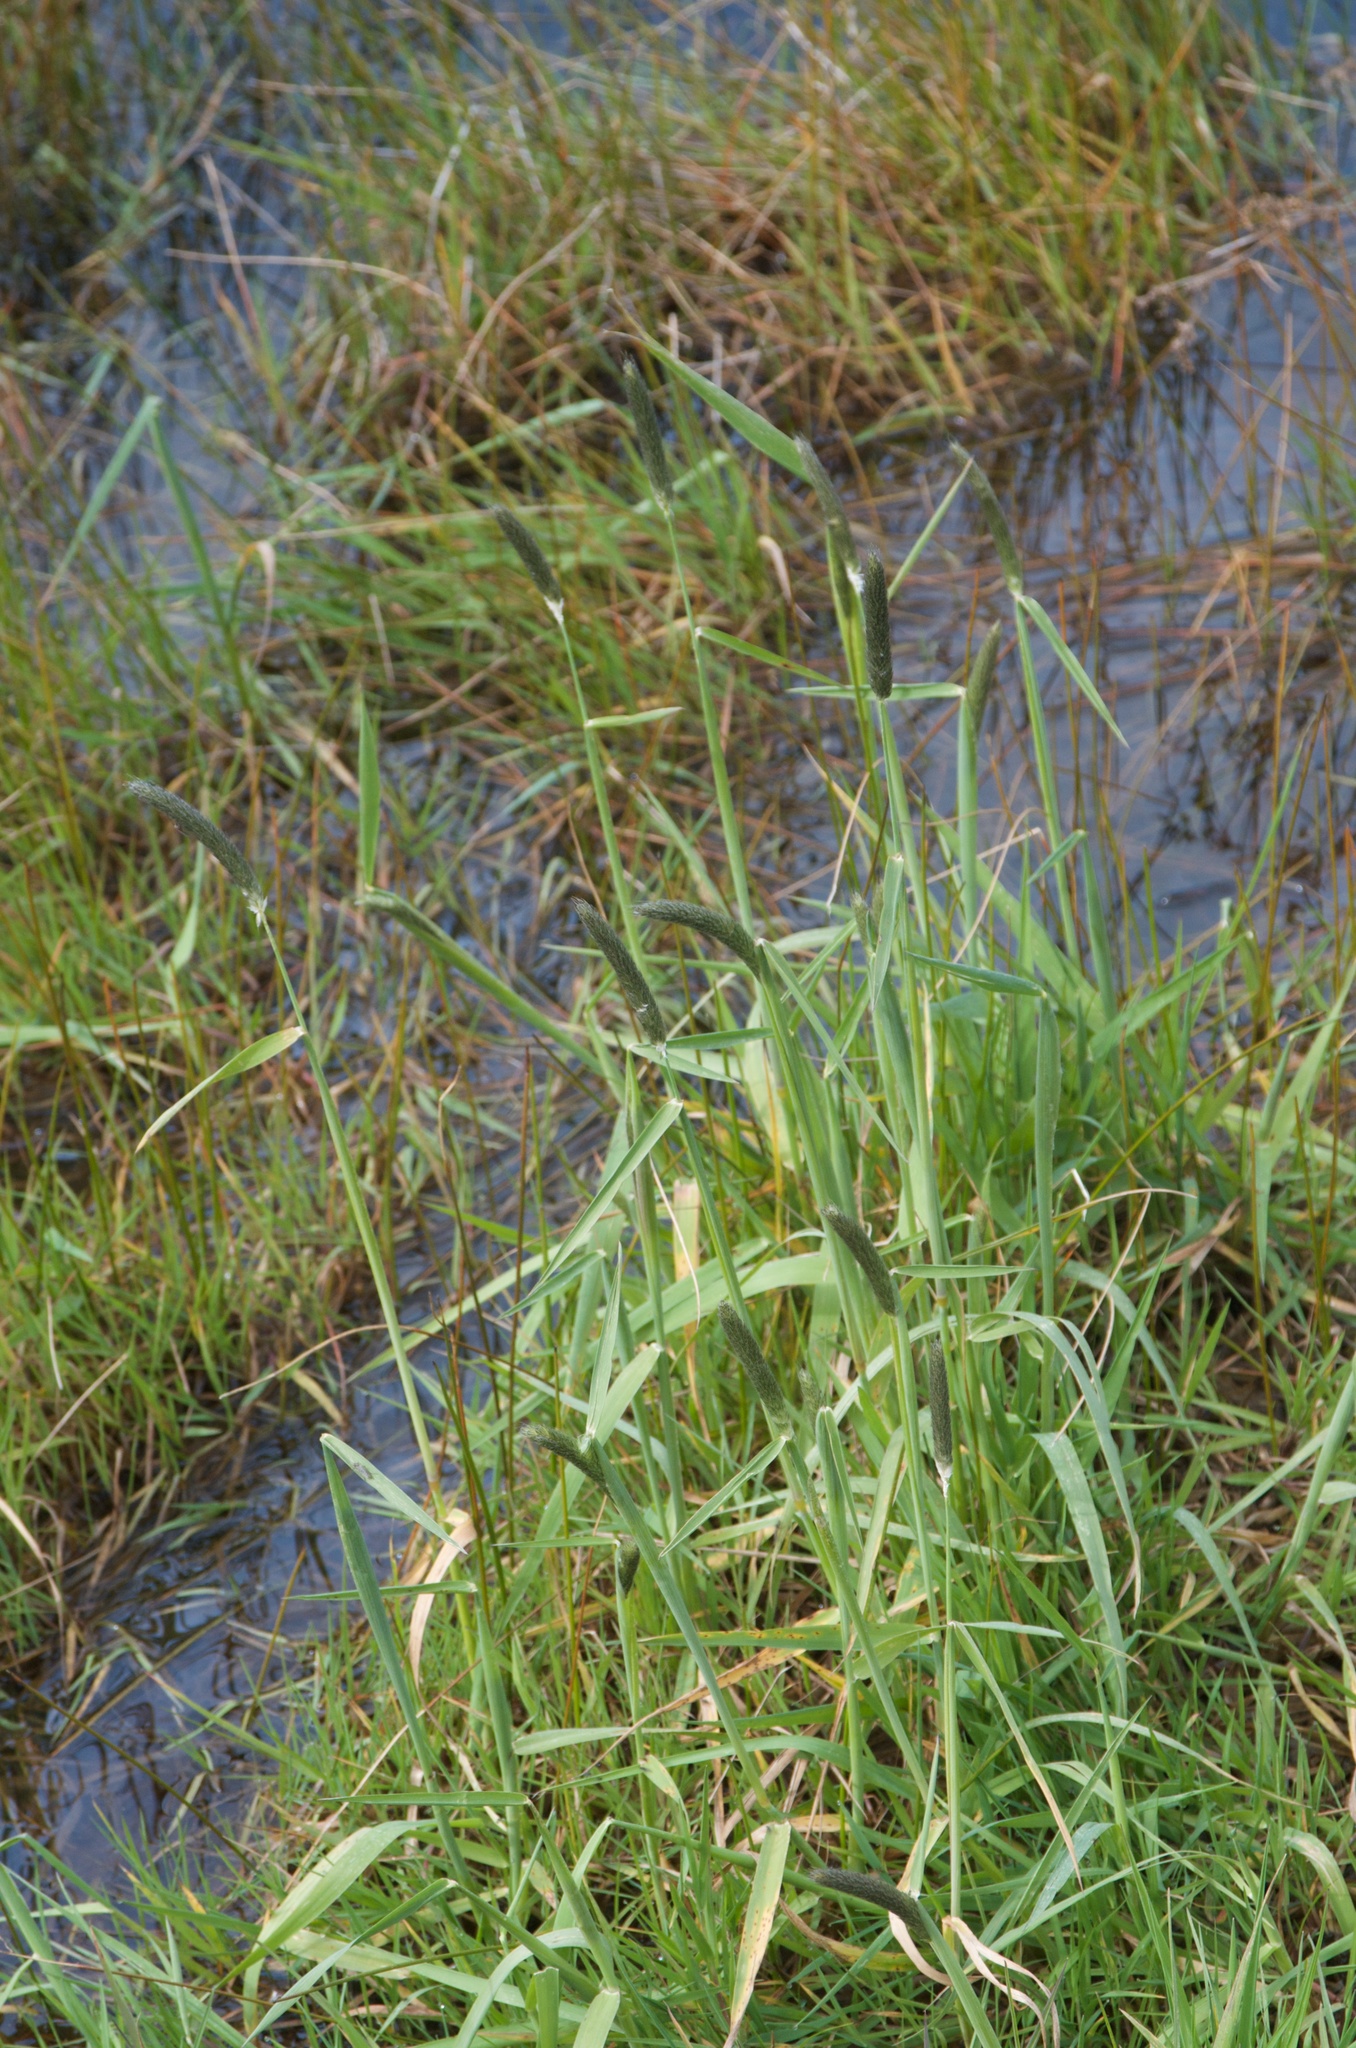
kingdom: Plantae
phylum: Tracheophyta
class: Liliopsida
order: Poales
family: Poaceae
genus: Alopecurus
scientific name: Alopecurus geniculatus
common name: Water foxtail
